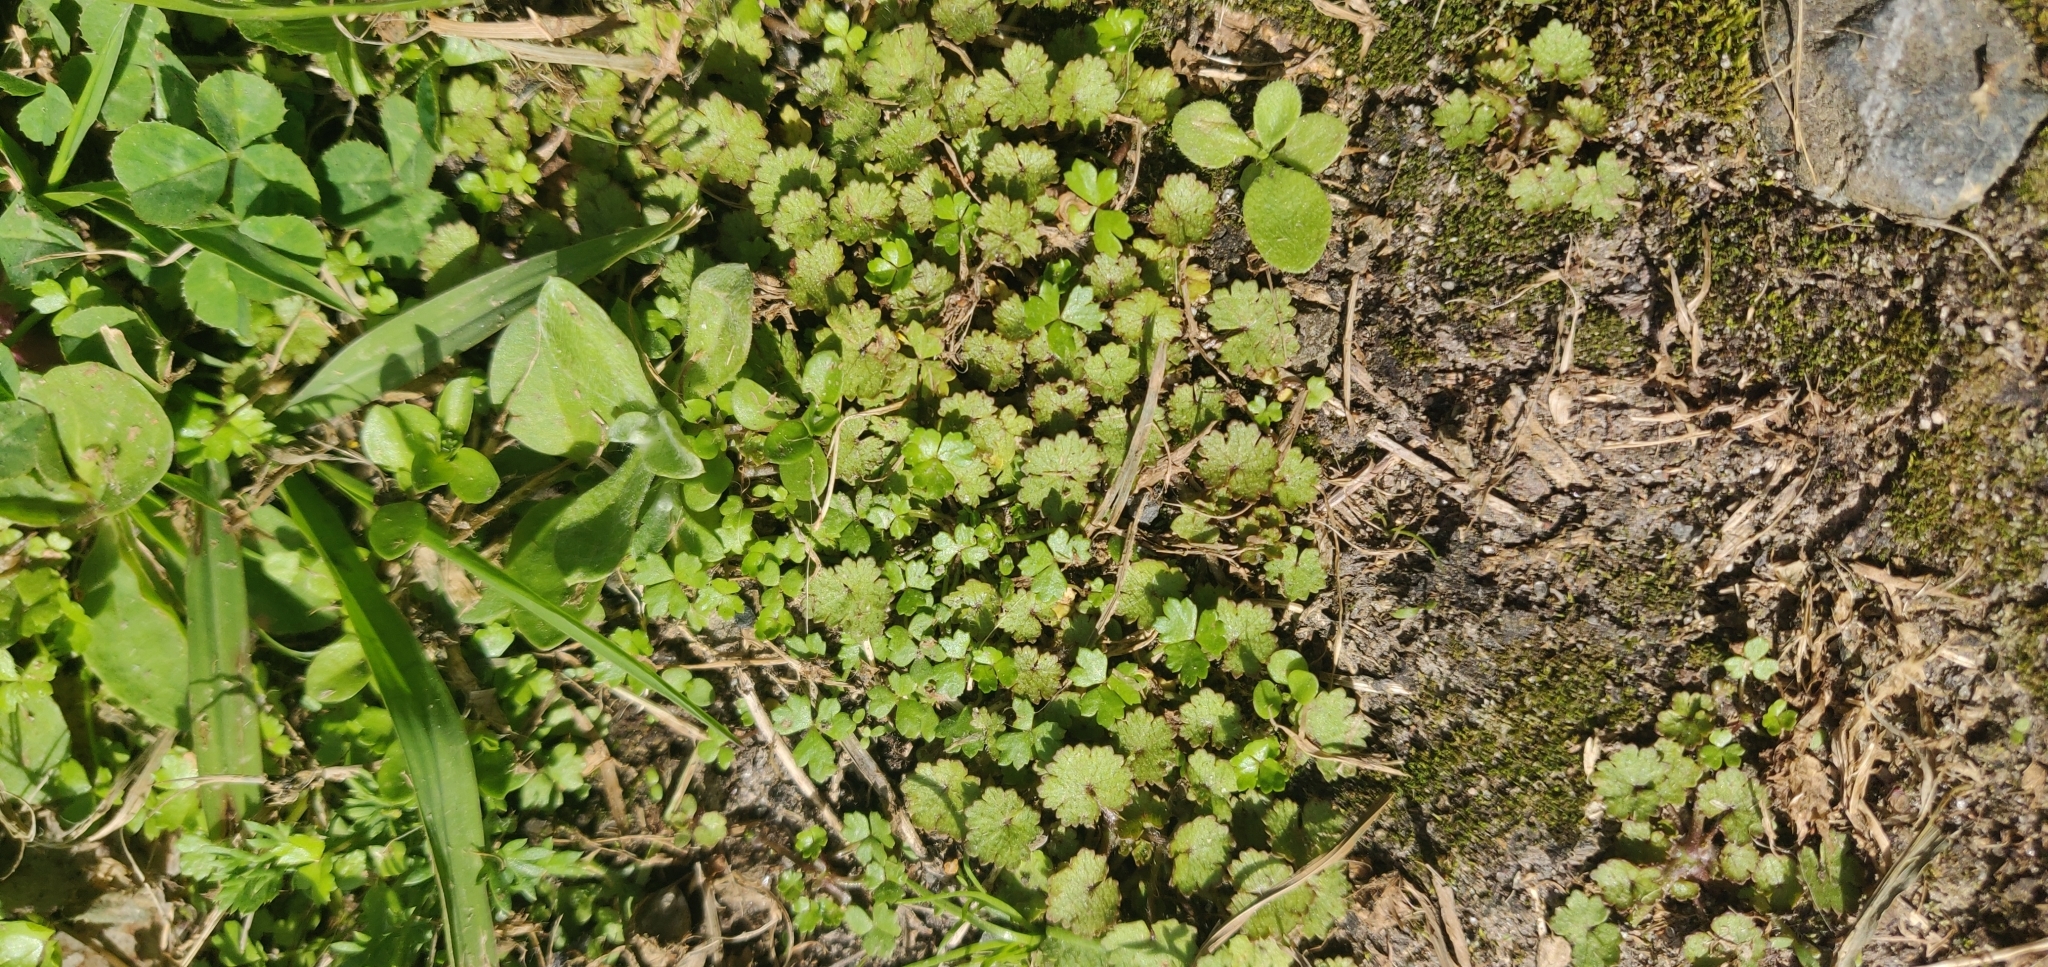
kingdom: Plantae
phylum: Tracheophyta
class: Magnoliopsida
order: Apiales
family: Araliaceae
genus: Hydrocotyle
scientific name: Hydrocotyle moschata
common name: Hairy pennywort
